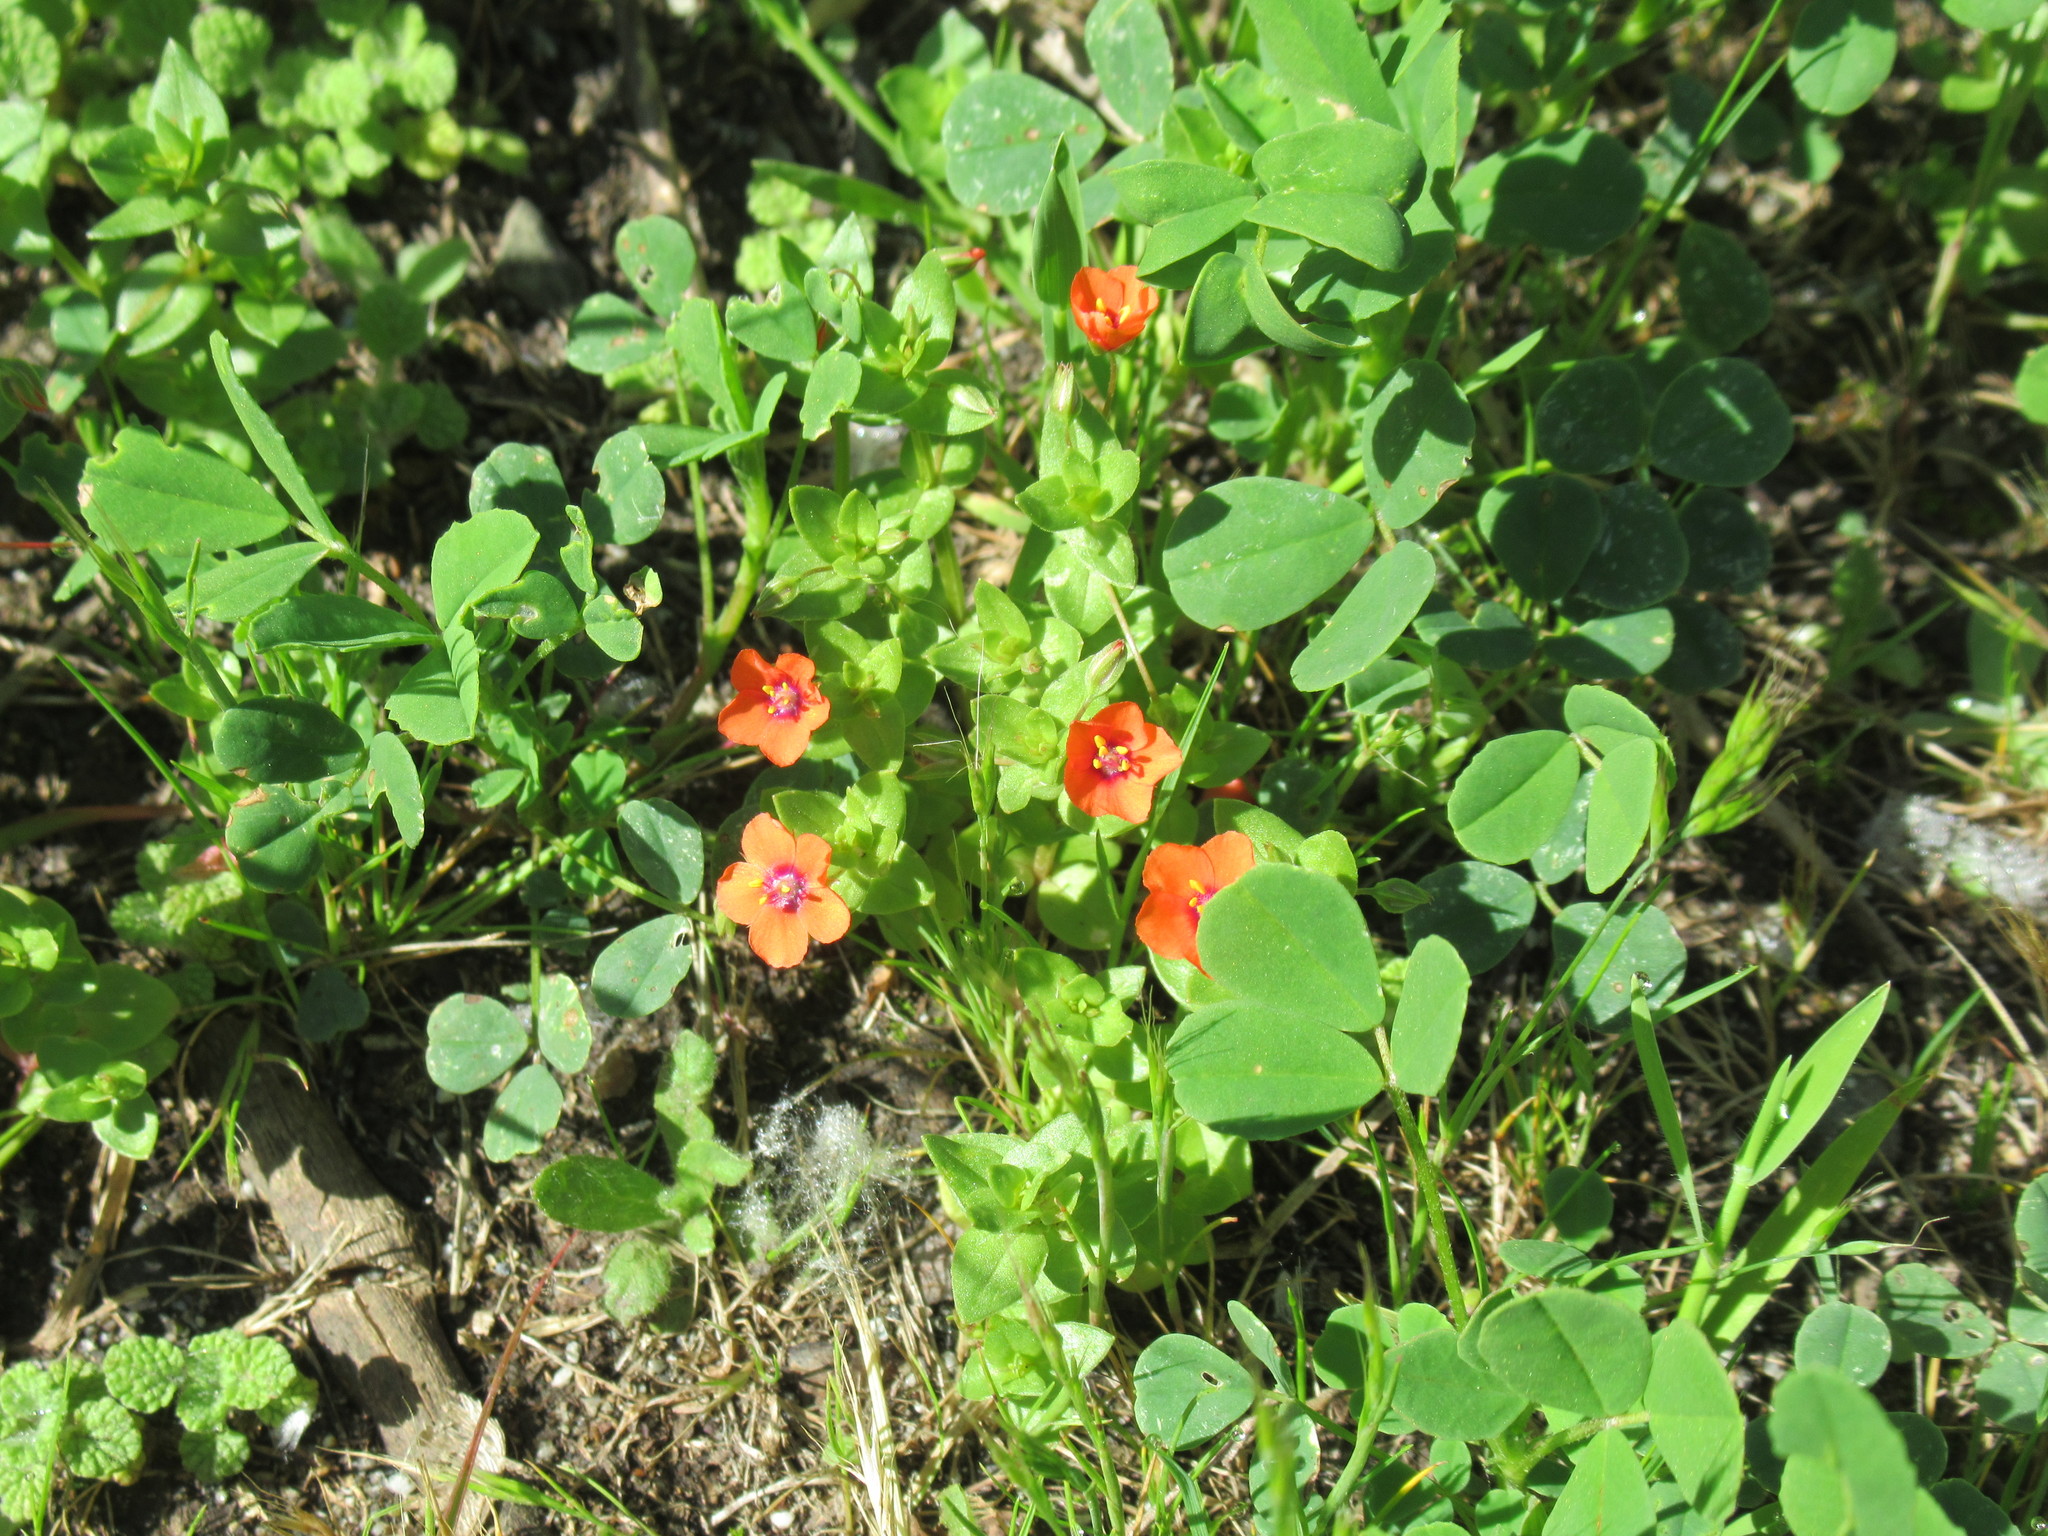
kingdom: Plantae
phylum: Tracheophyta
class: Magnoliopsida
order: Ericales
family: Primulaceae
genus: Lysimachia
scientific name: Lysimachia arvensis
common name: Scarlet pimpernel
